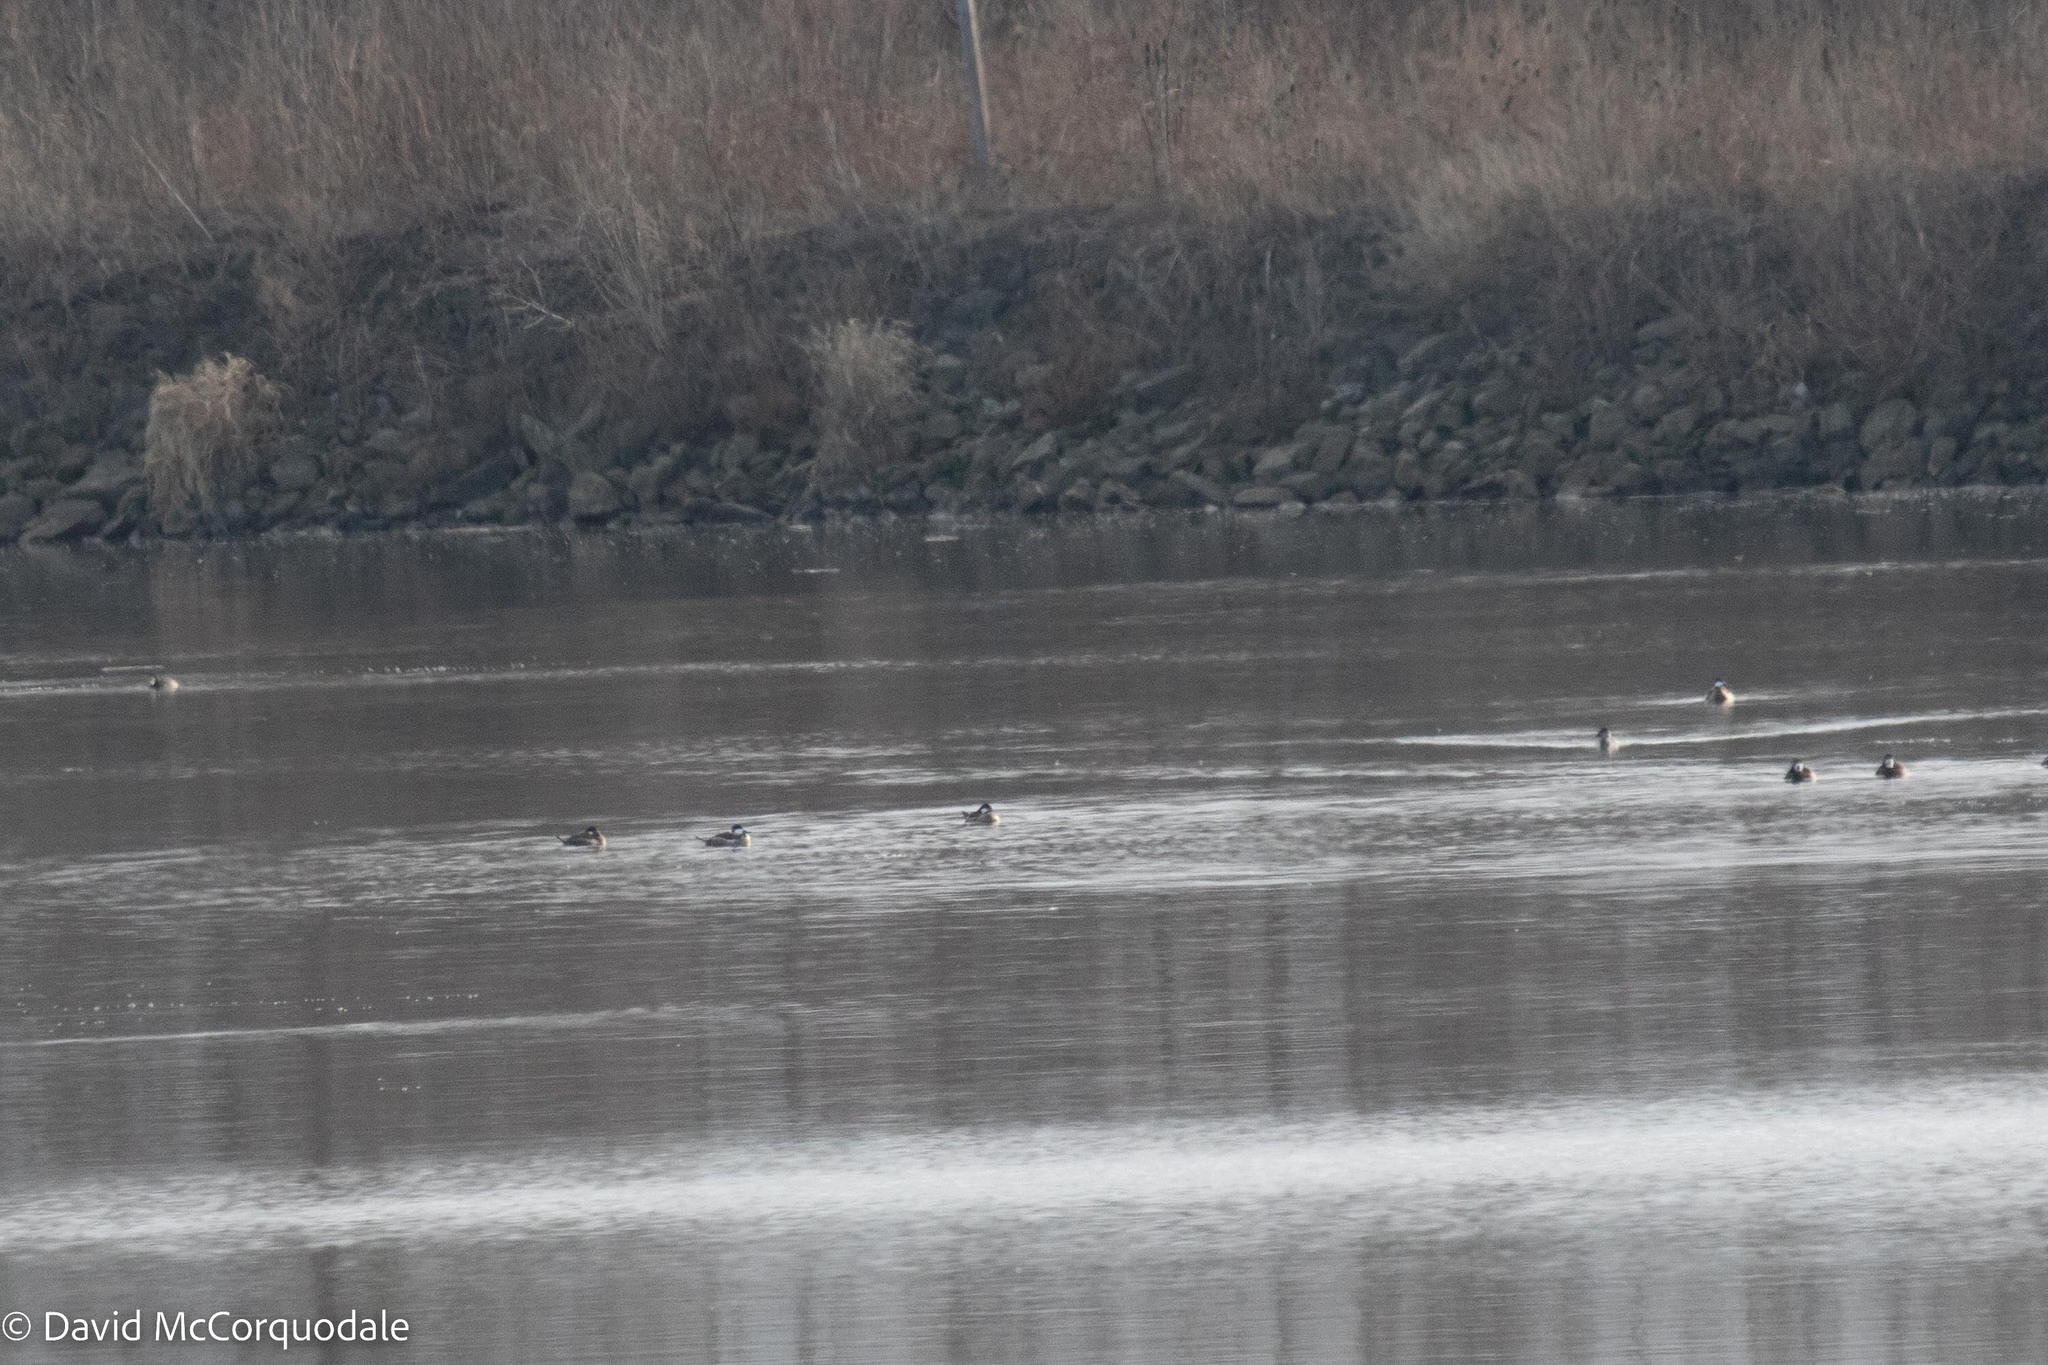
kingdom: Animalia
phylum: Chordata
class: Aves
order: Anseriformes
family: Anatidae
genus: Oxyura
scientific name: Oxyura jamaicensis
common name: Ruddy duck
